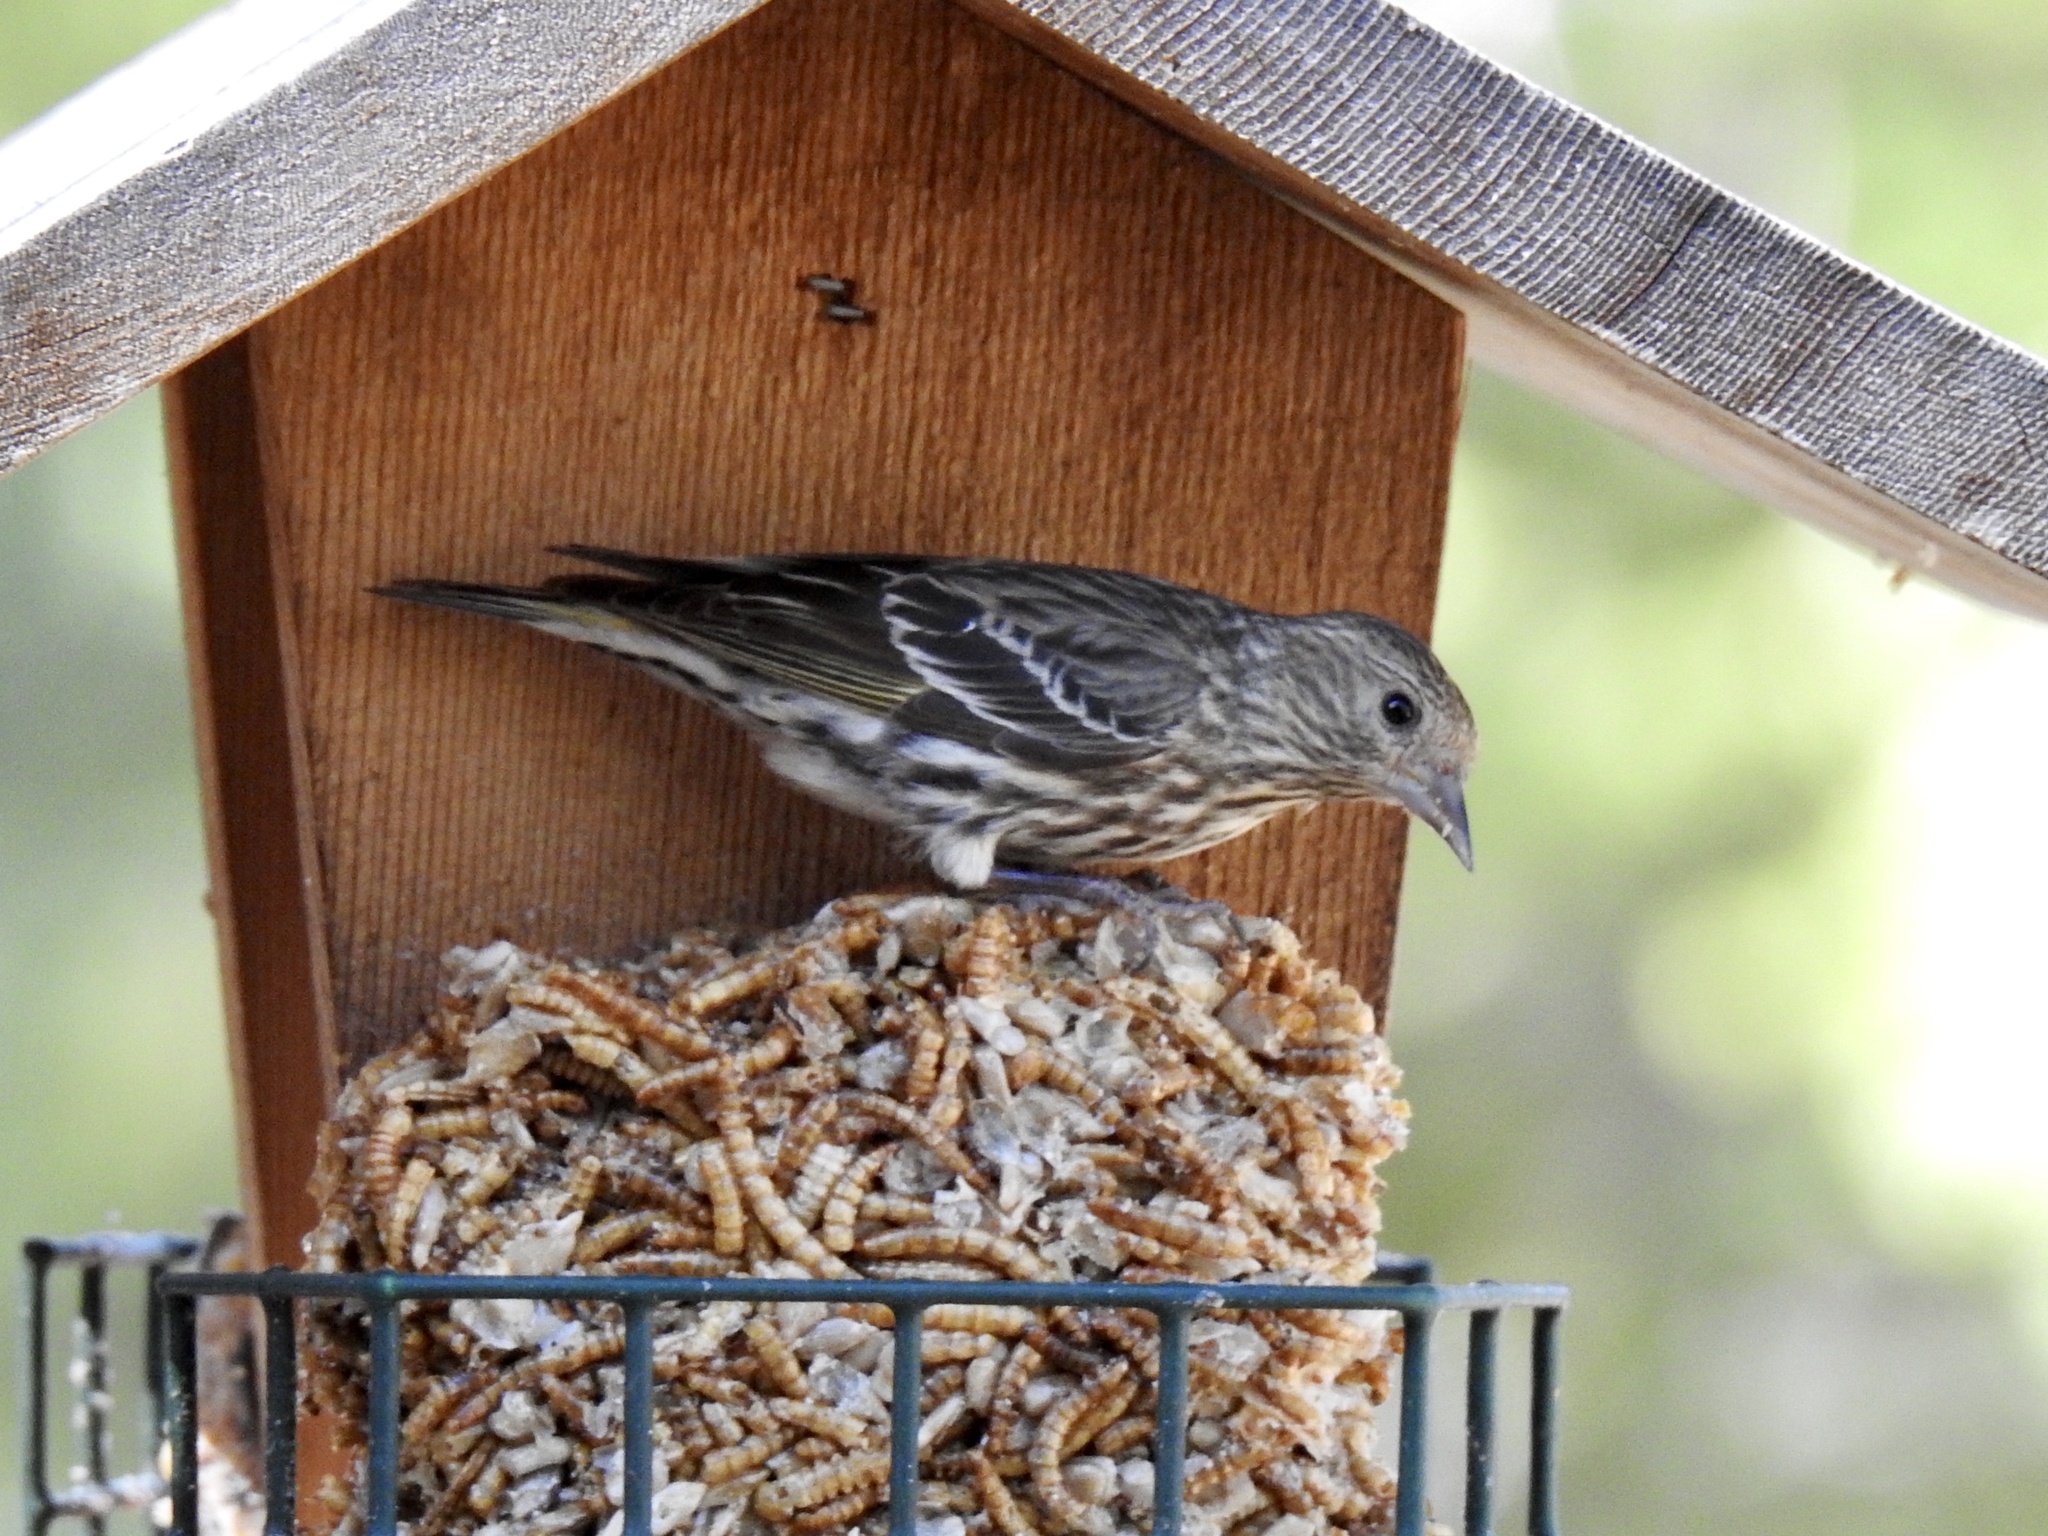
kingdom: Animalia
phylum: Chordata
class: Aves
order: Passeriformes
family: Fringillidae
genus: Spinus
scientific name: Spinus pinus
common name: Pine siskin
